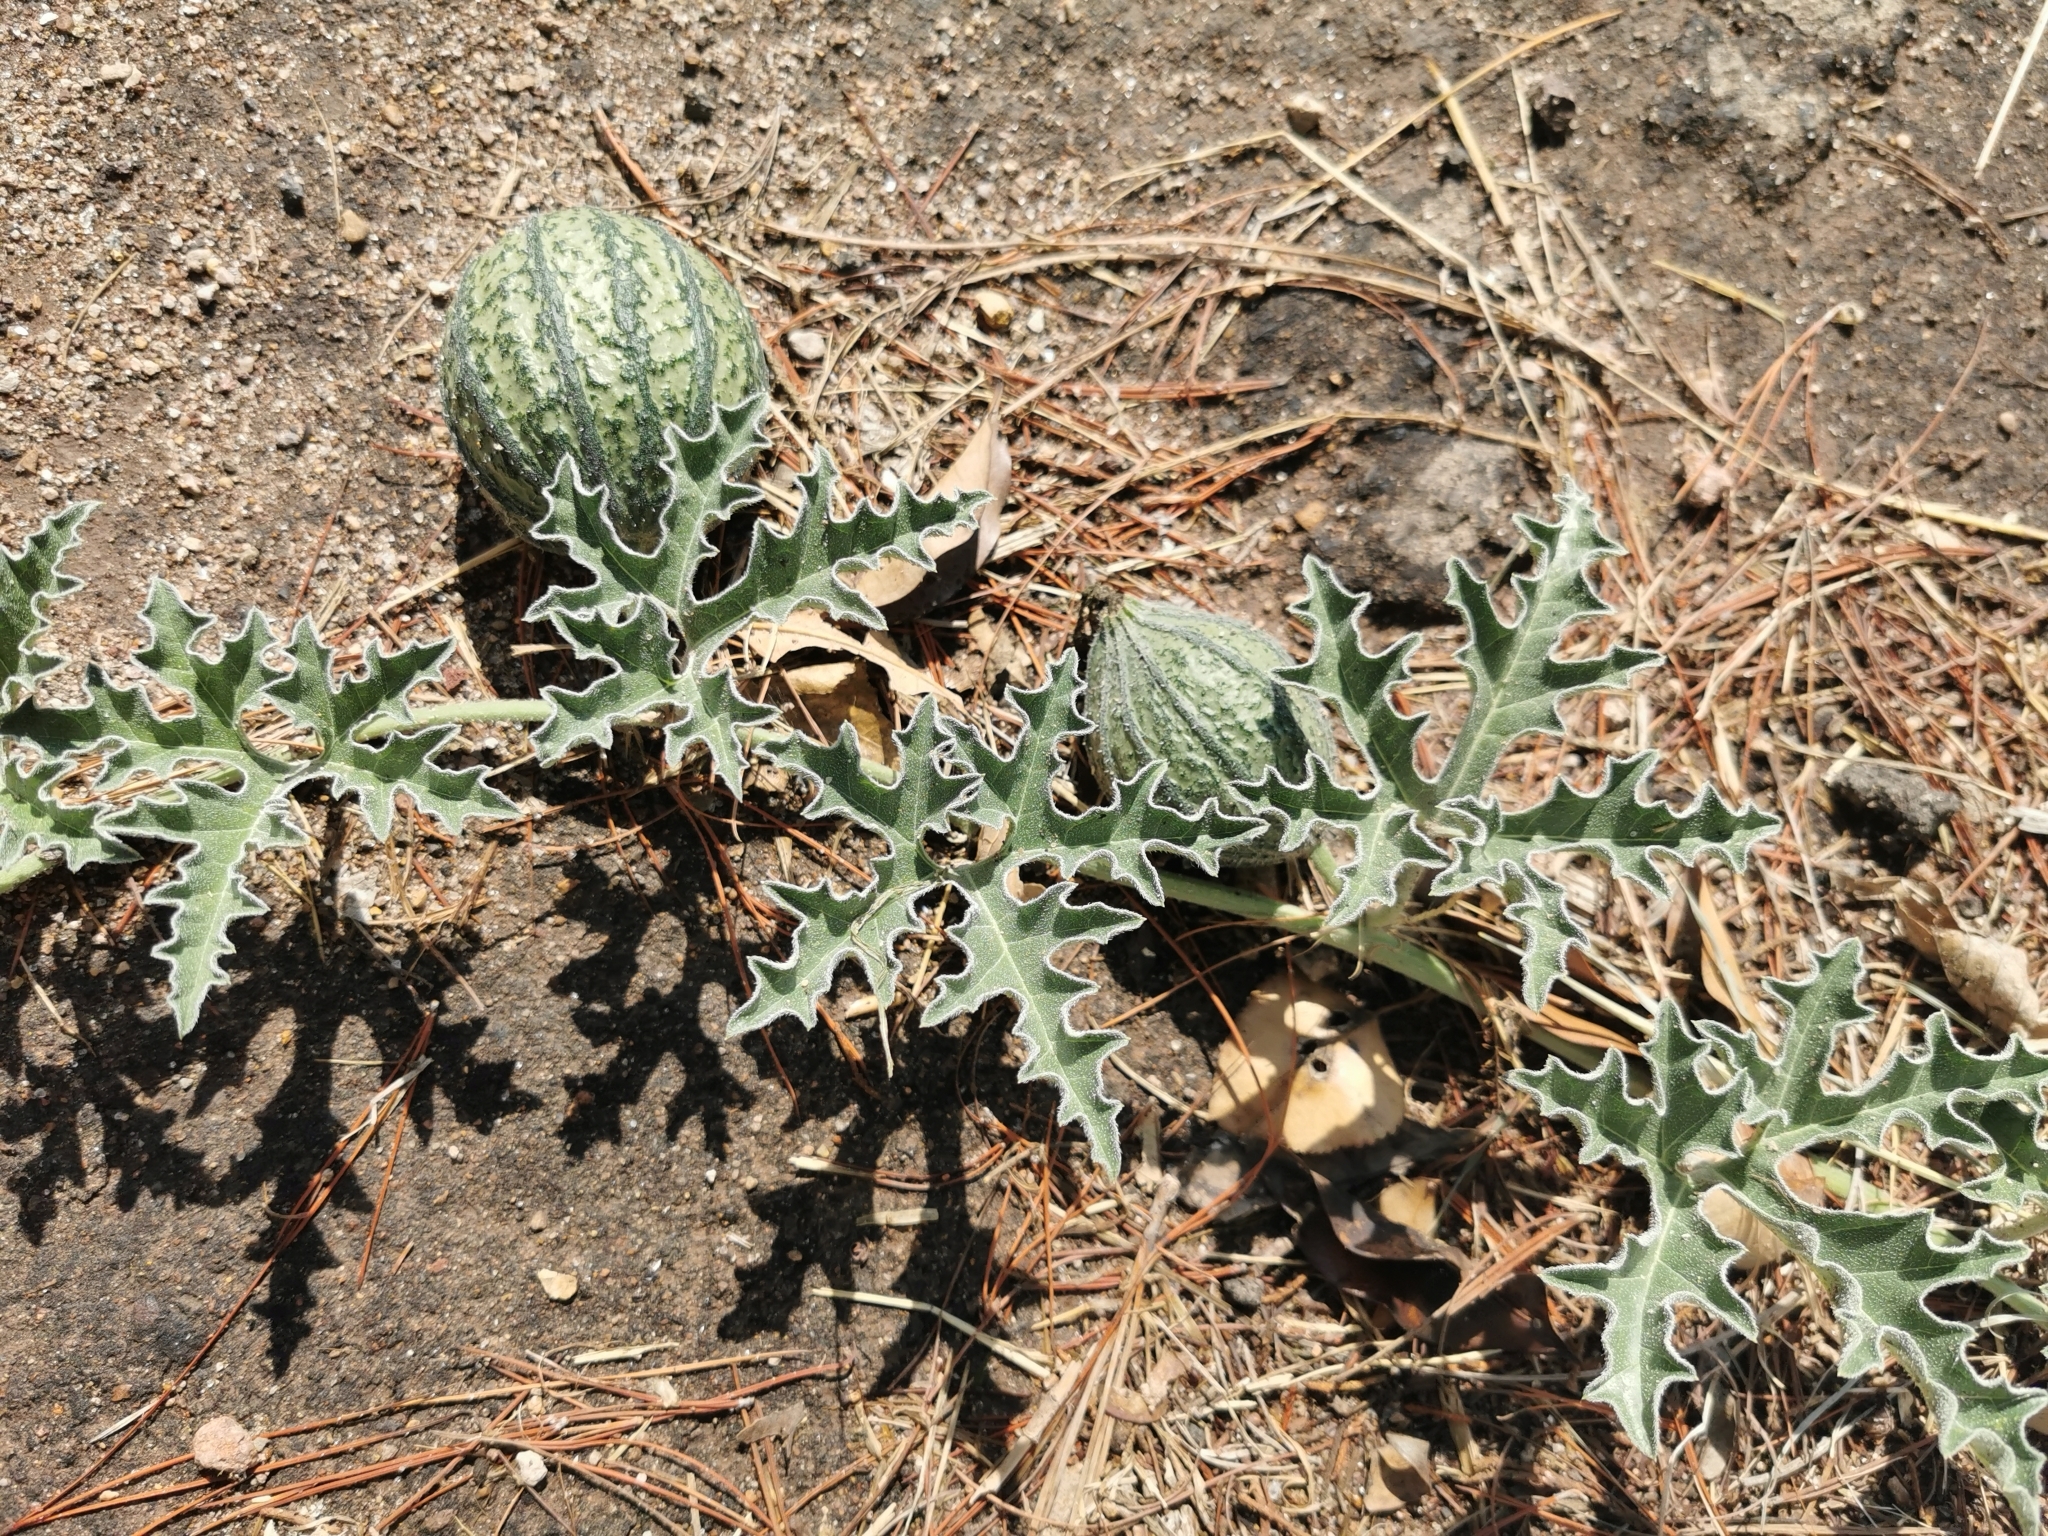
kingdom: Plantae
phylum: Tracheophyta
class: Magnoliopsida
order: Cucurbitales
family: Cucurbitaceae
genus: Apodanthera
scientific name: Apodanthera undulata
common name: Melon-loco
